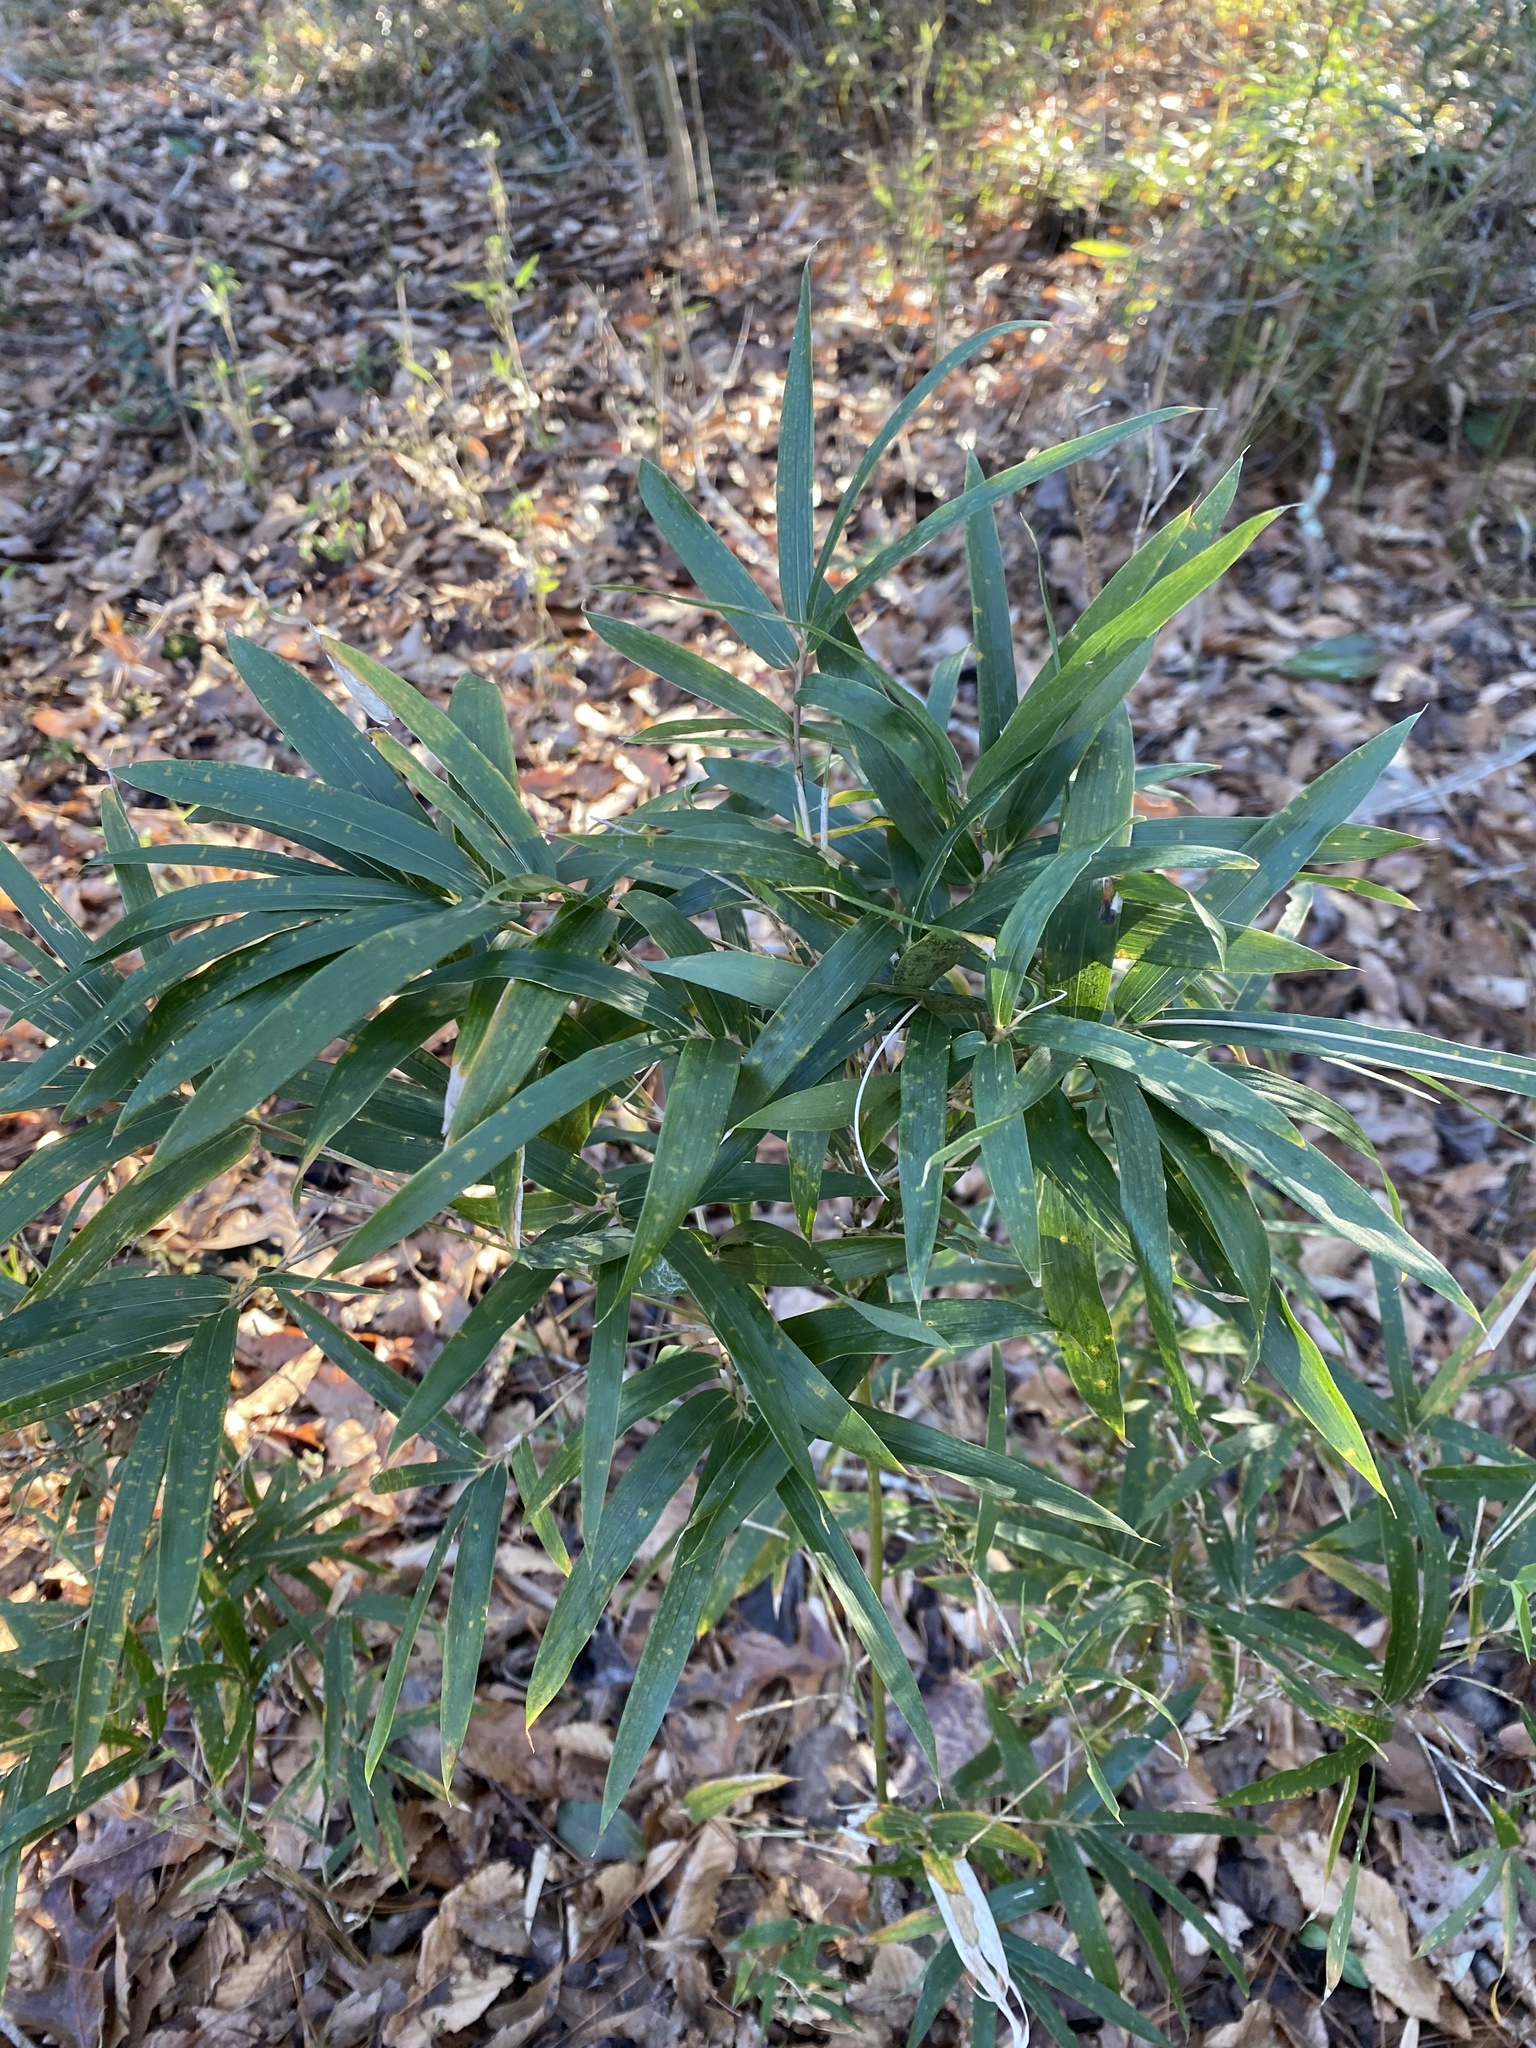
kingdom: Plantae
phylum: Tracheophyta
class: Liliopsida
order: Poales
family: Poaceae
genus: Arundinaria
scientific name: Arundinaria gigantea
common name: Giant cane
